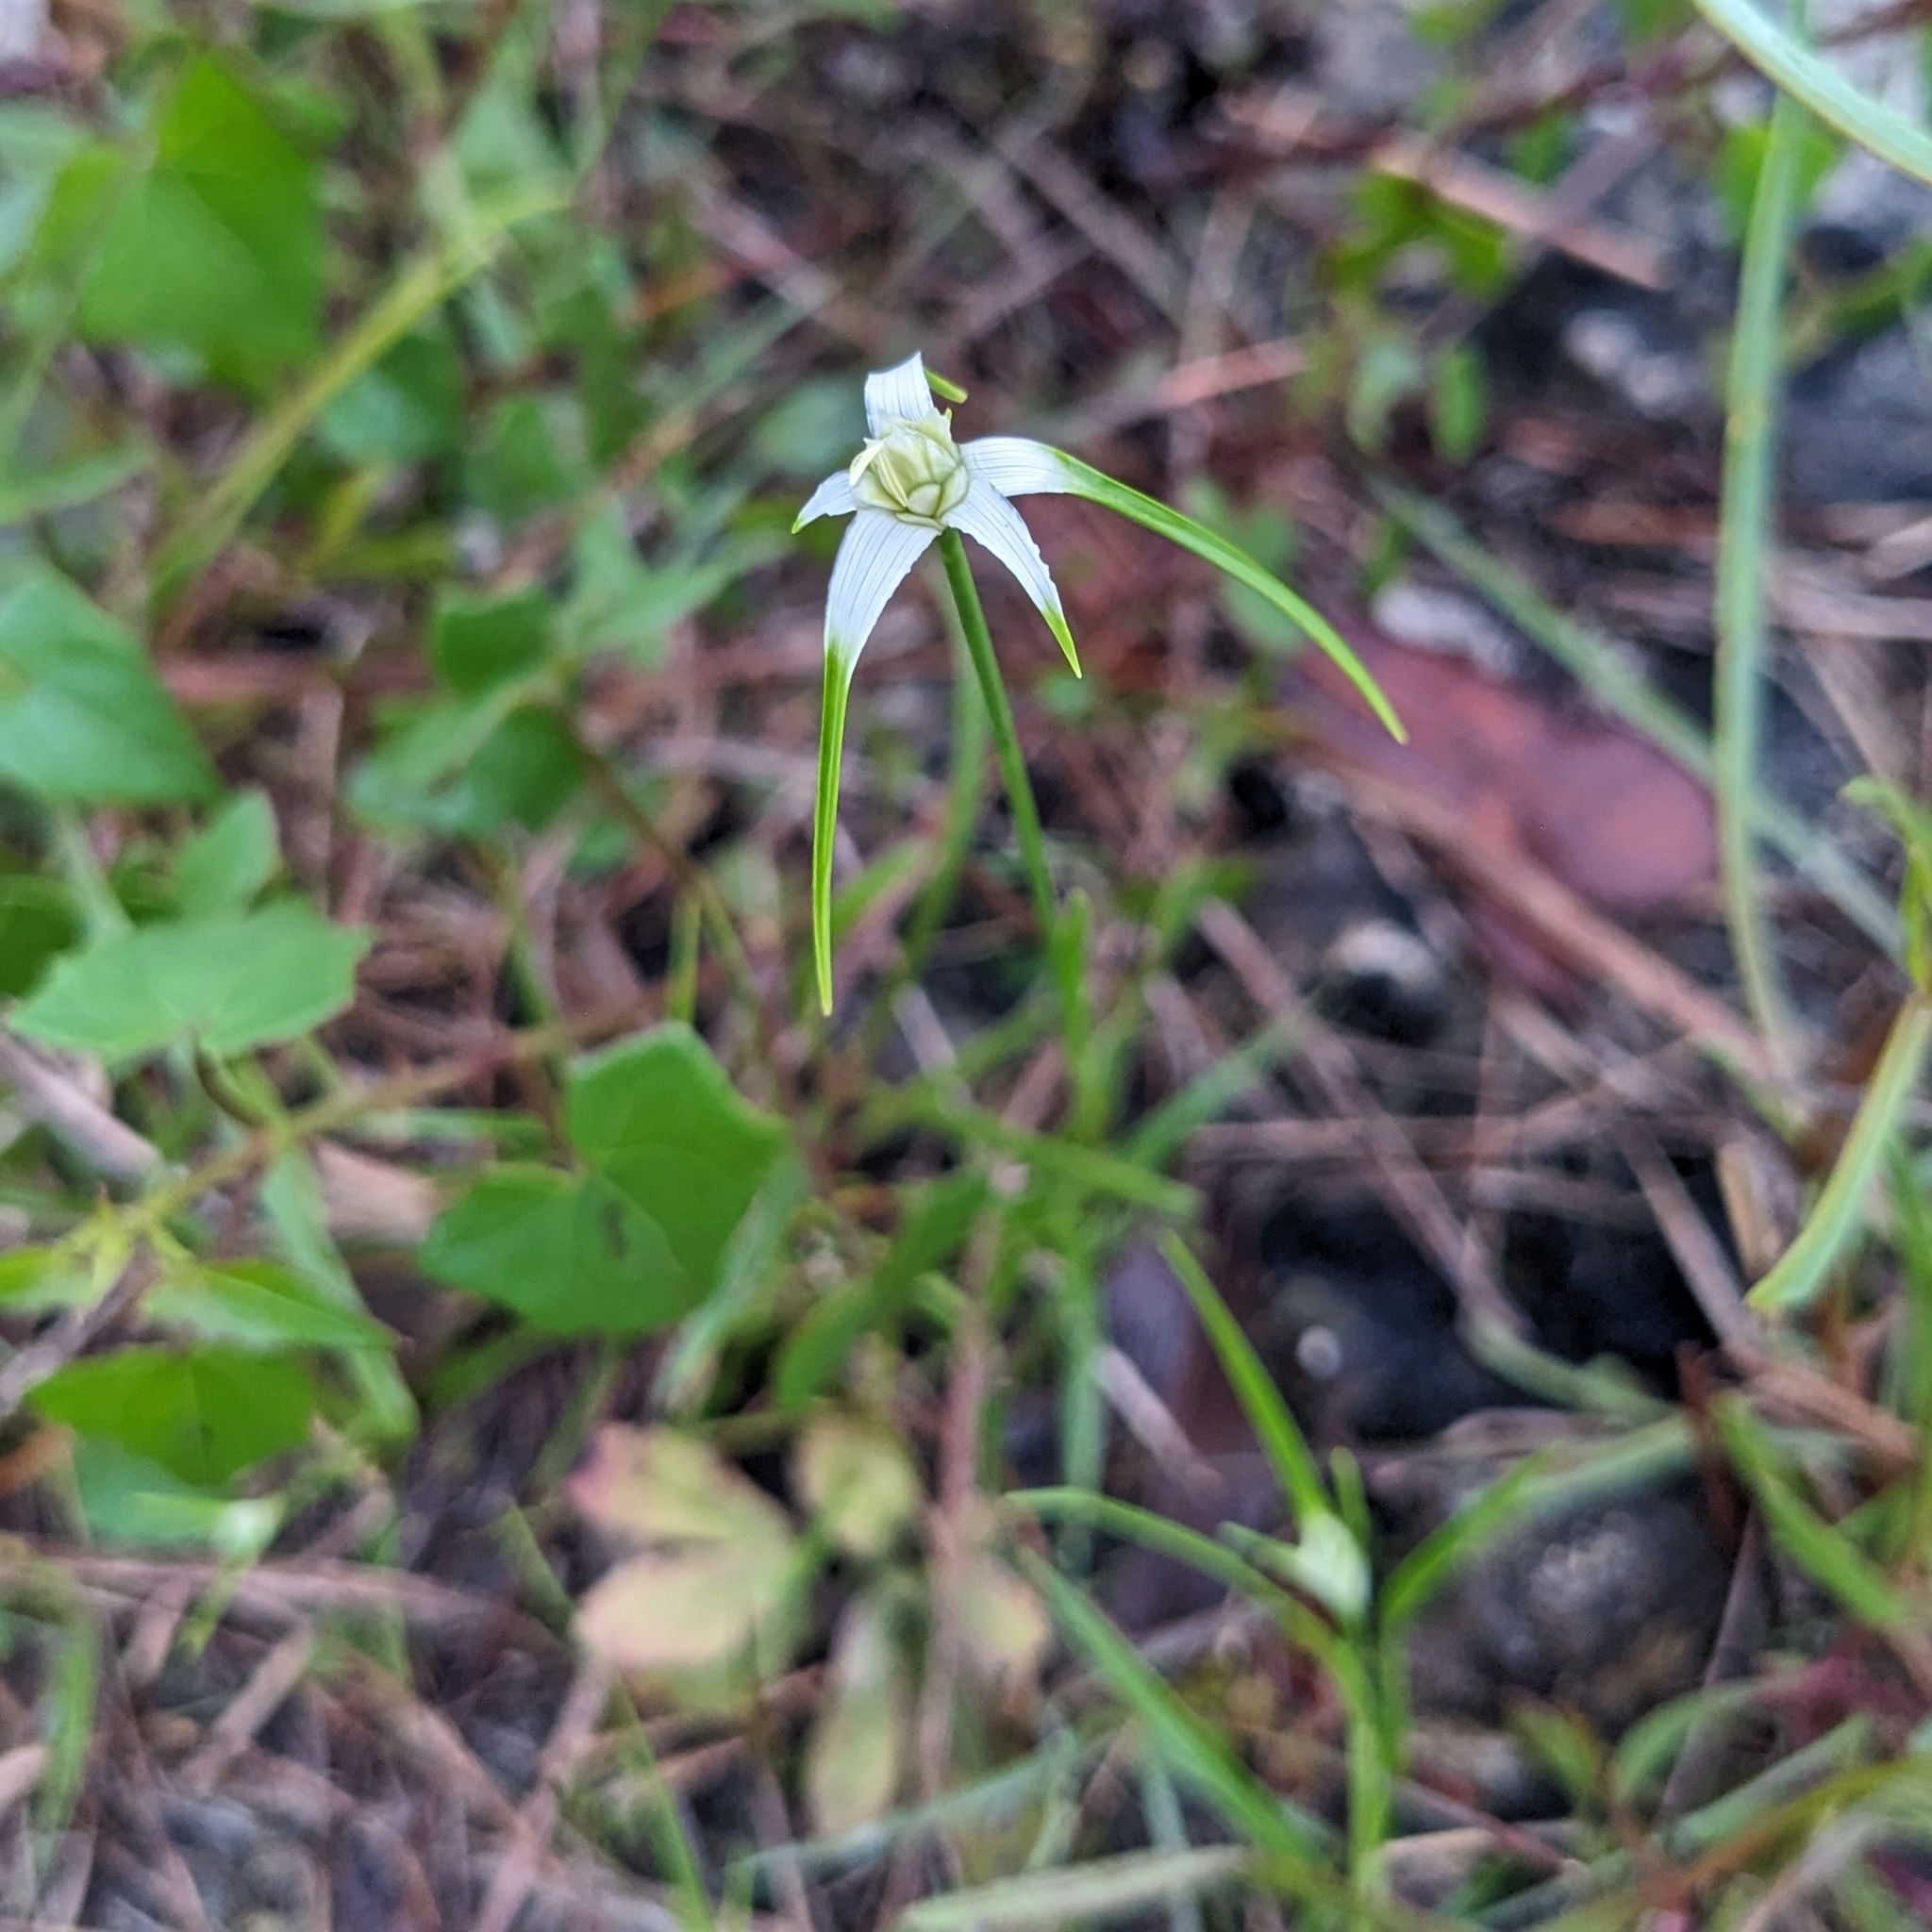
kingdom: Plantae
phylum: Tracheophyta
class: Liliopsida
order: Poales
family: Cyperaceae
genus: Rhynchospora
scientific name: Rhynchospora colorata
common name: Star sedge
